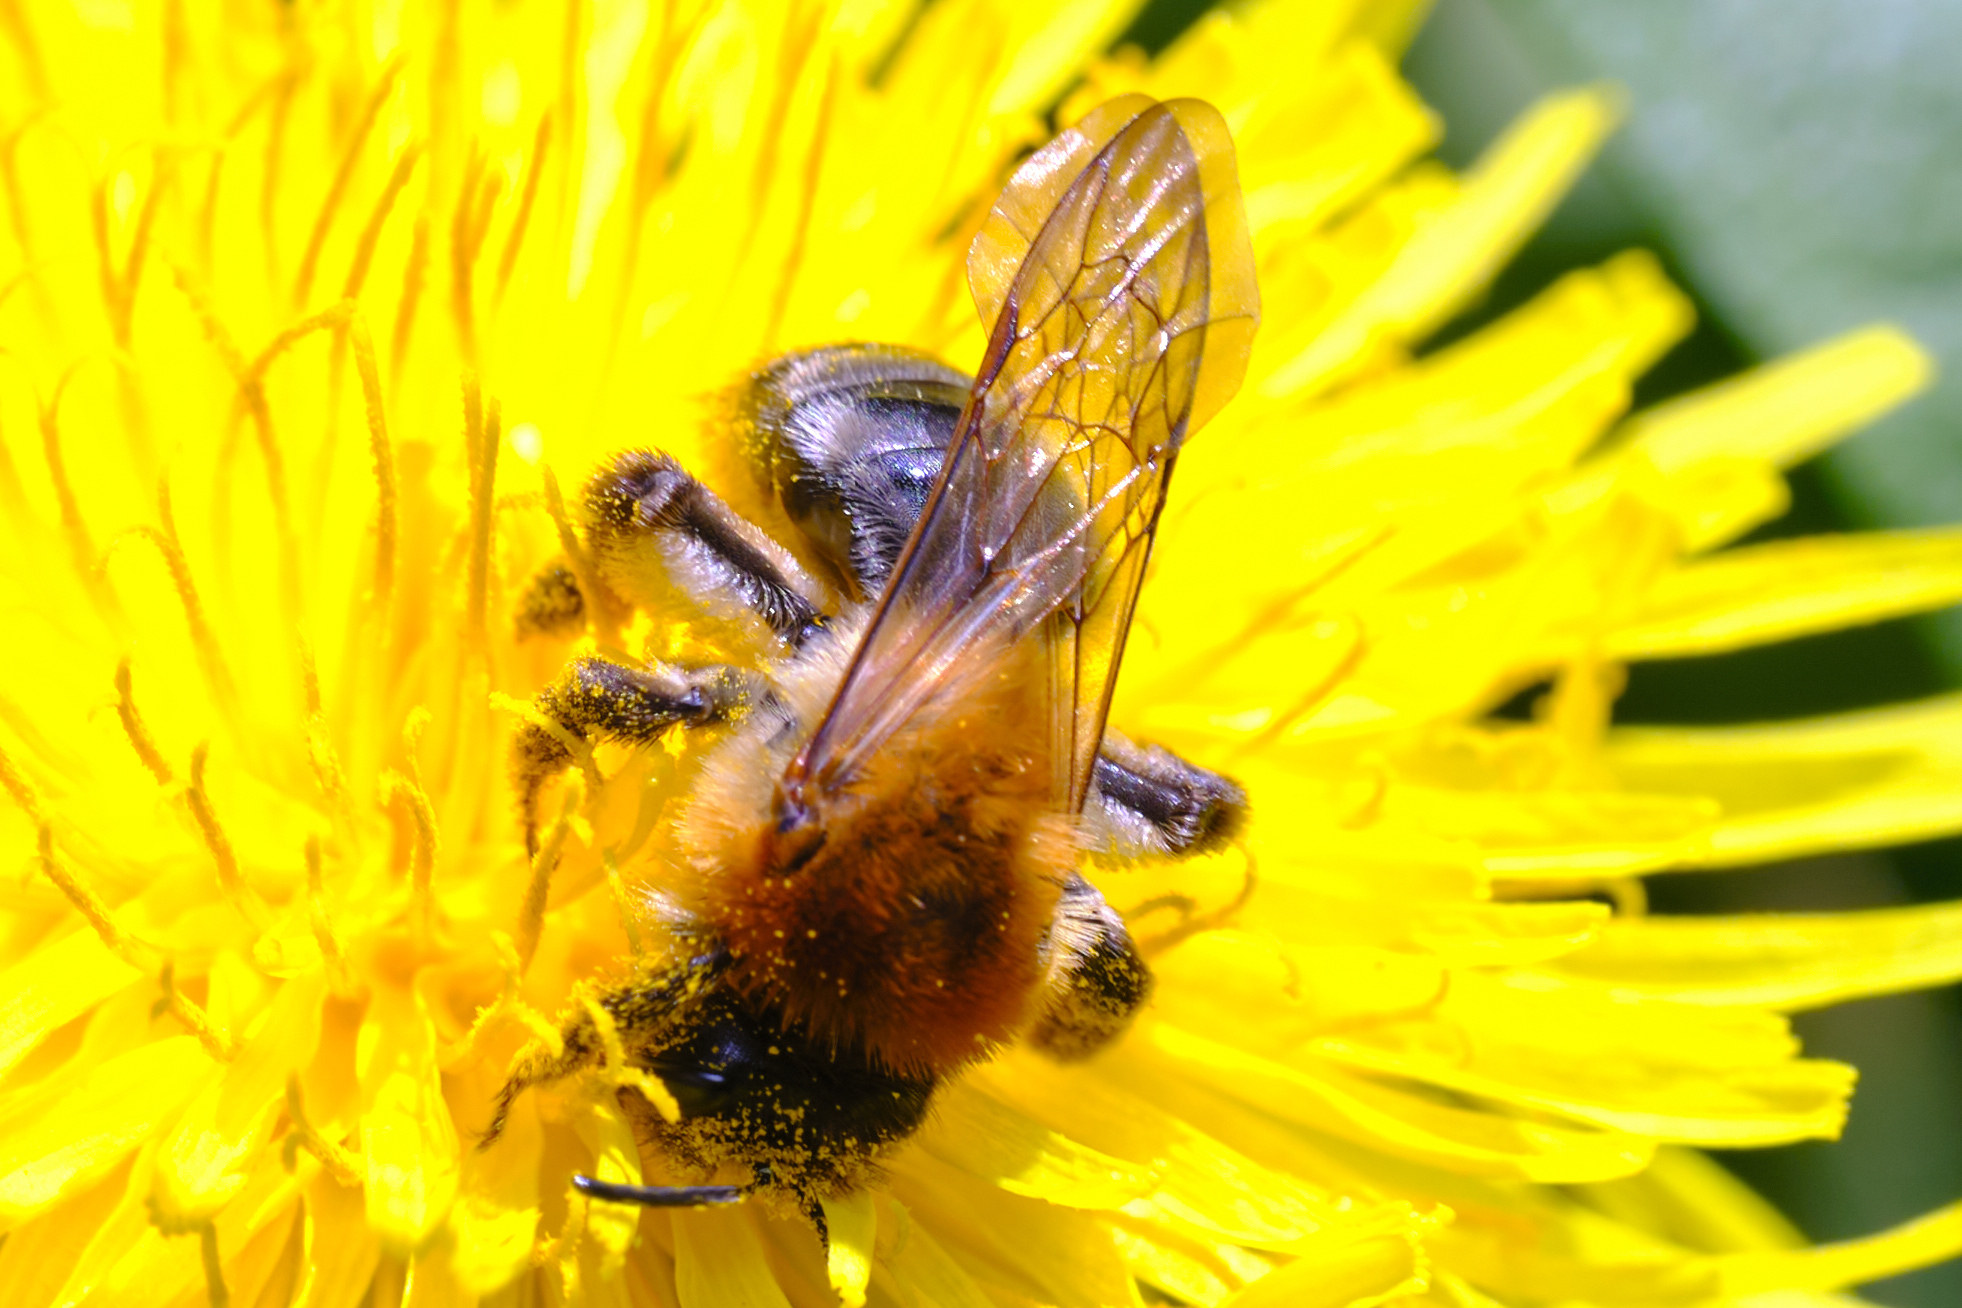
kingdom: Animalia
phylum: Arthropoda
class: Insecta
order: Hymenoptera
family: Andrenidae
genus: Andrena
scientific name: Andrena nitida
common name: Grey-patched mining bee
